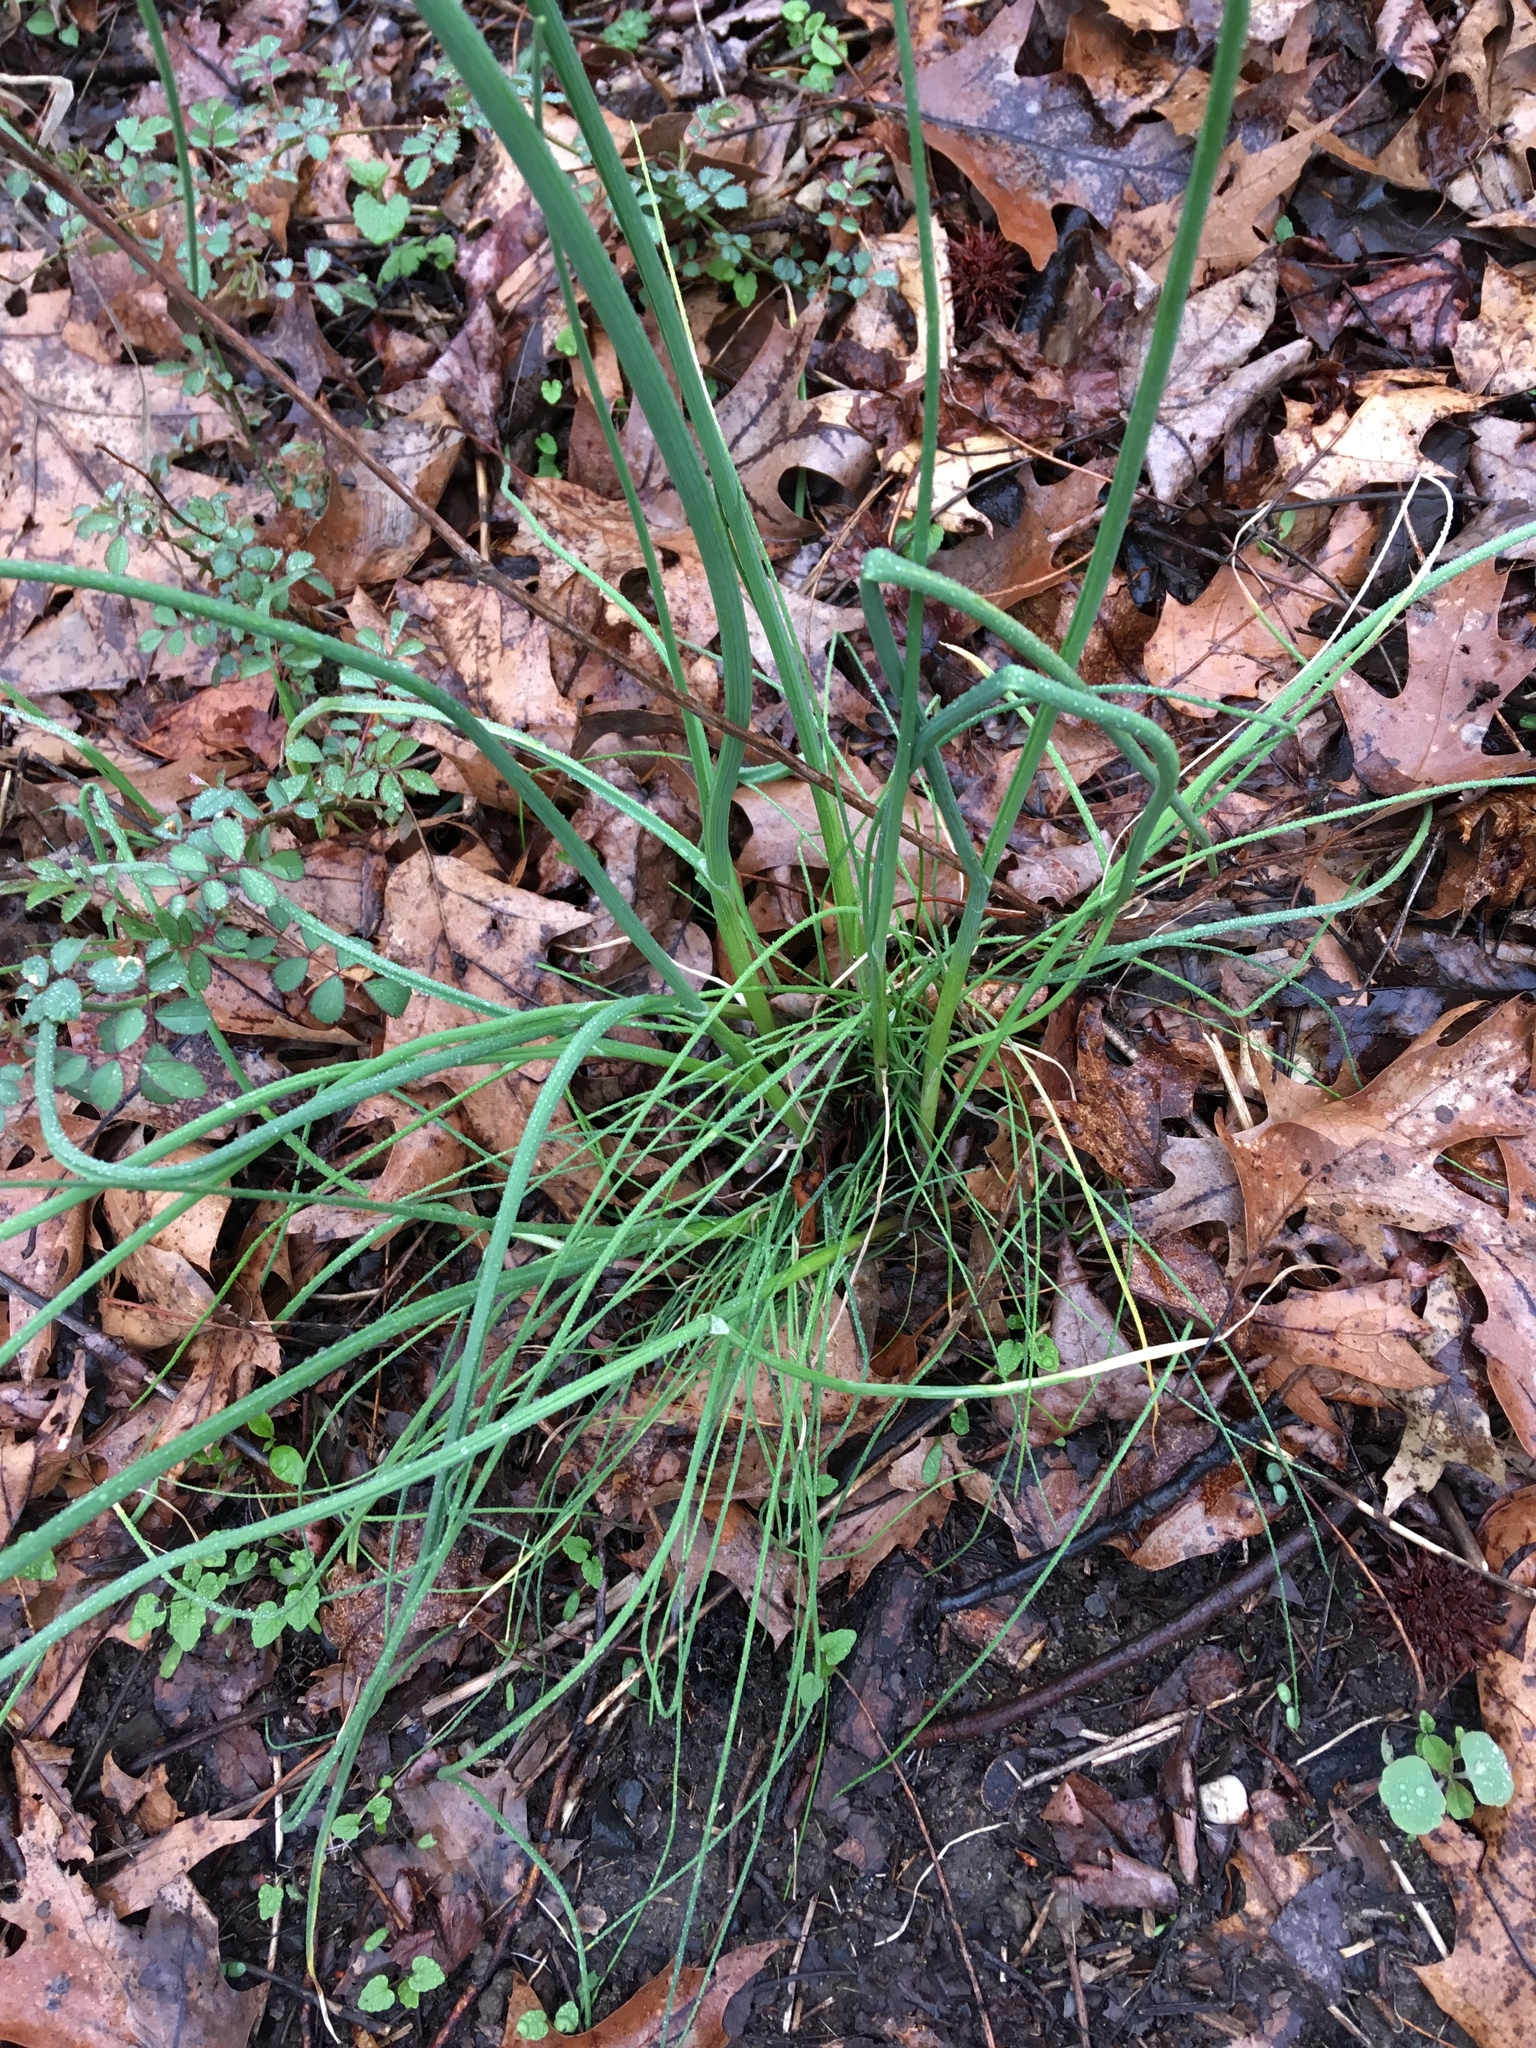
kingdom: Plantae
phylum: Tracheophyta
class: Liliopsida
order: Asparagales
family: Amaryllidaceae
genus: Allium
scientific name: Allium vineale
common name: Crow garlic
